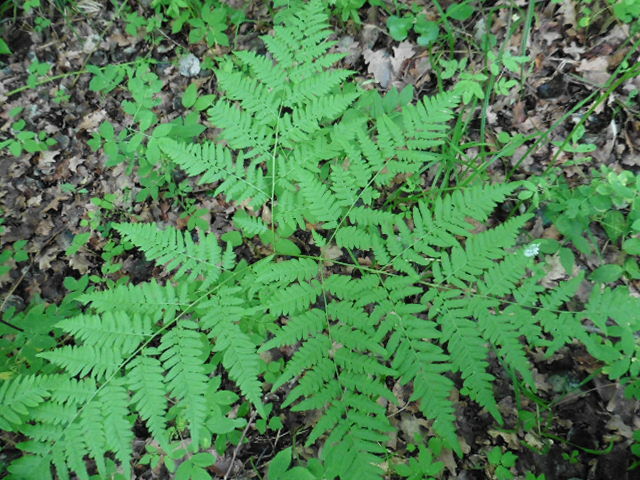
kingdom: Plantae
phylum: Tracheophyta
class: Polypodiopsida
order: Polypodiales
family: Dennstaedtiaceae
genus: Pteridium
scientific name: Pteridium aquilinum
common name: Bracken
